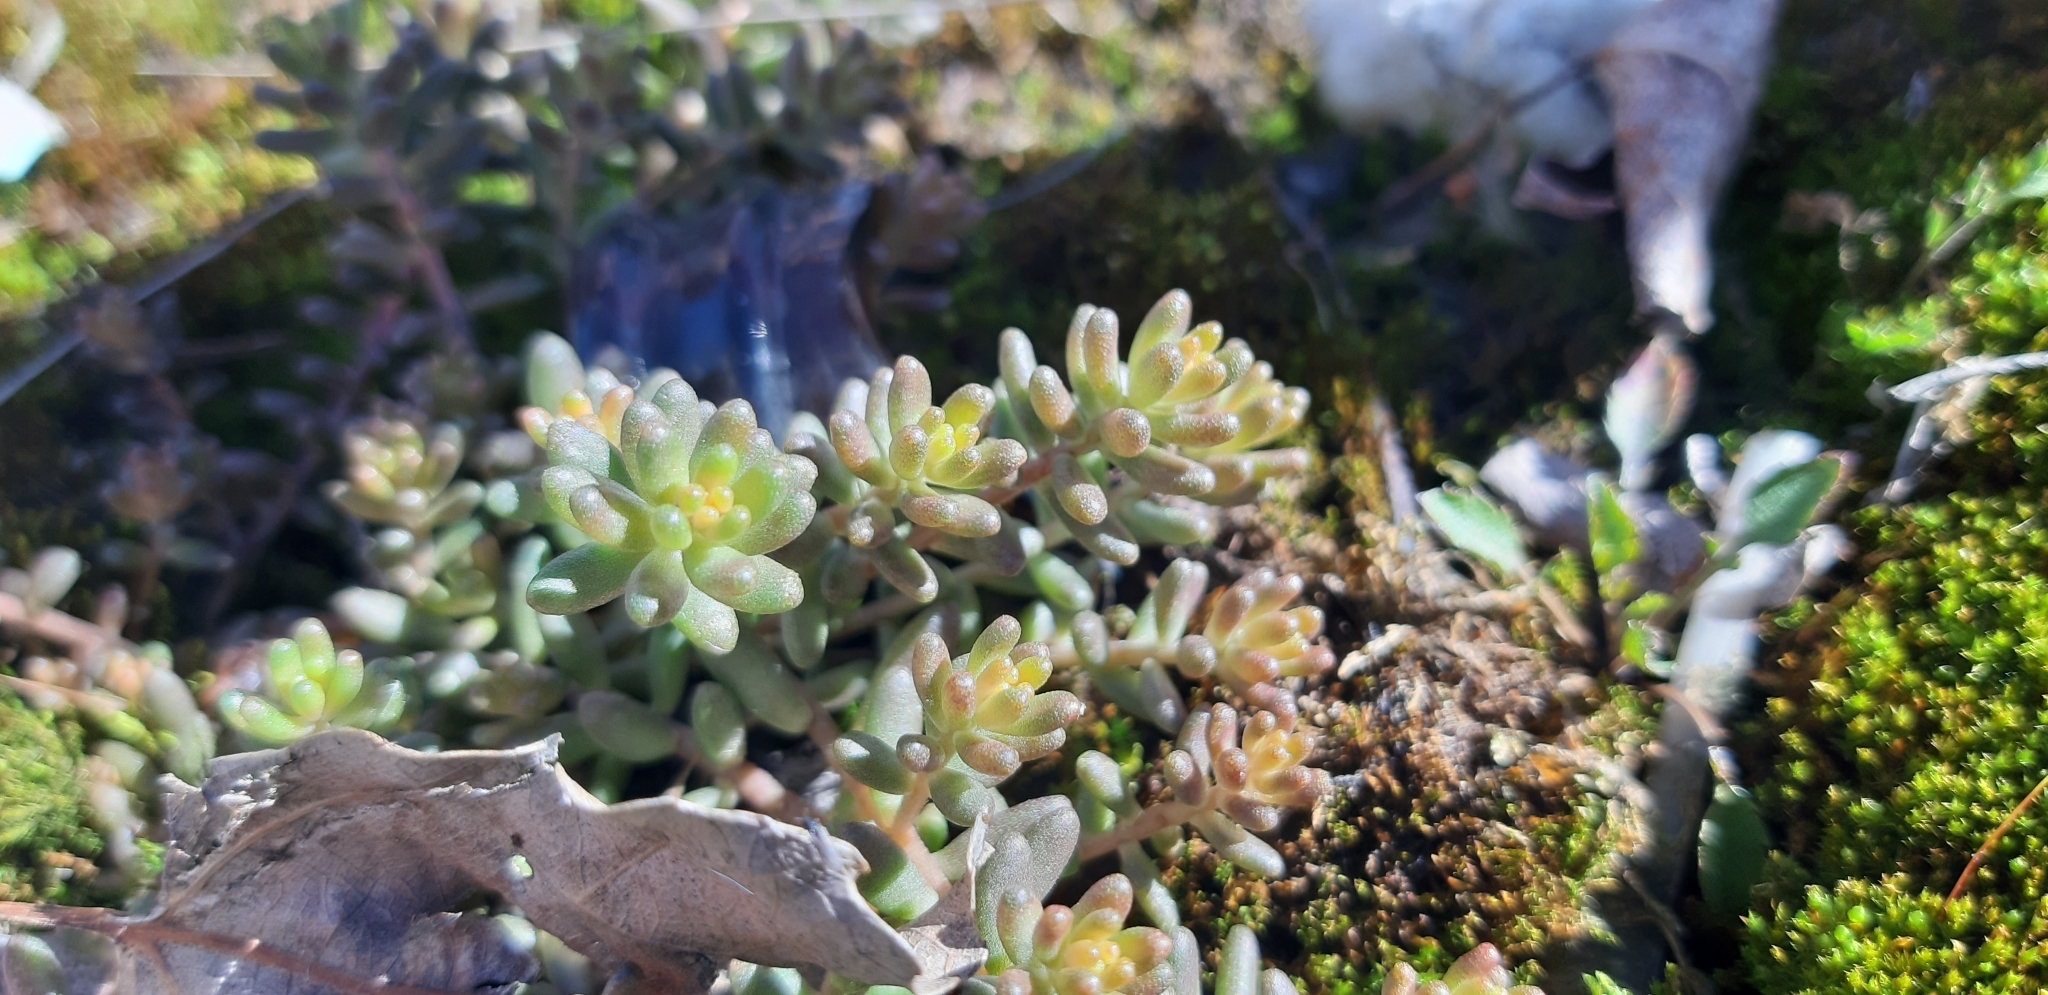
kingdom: Plantae
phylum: Tracheophyta
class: Magnoliopsida
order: Saxifragales
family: Crassulaceae
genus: Sedum
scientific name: Sedum album
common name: White stonecrop
